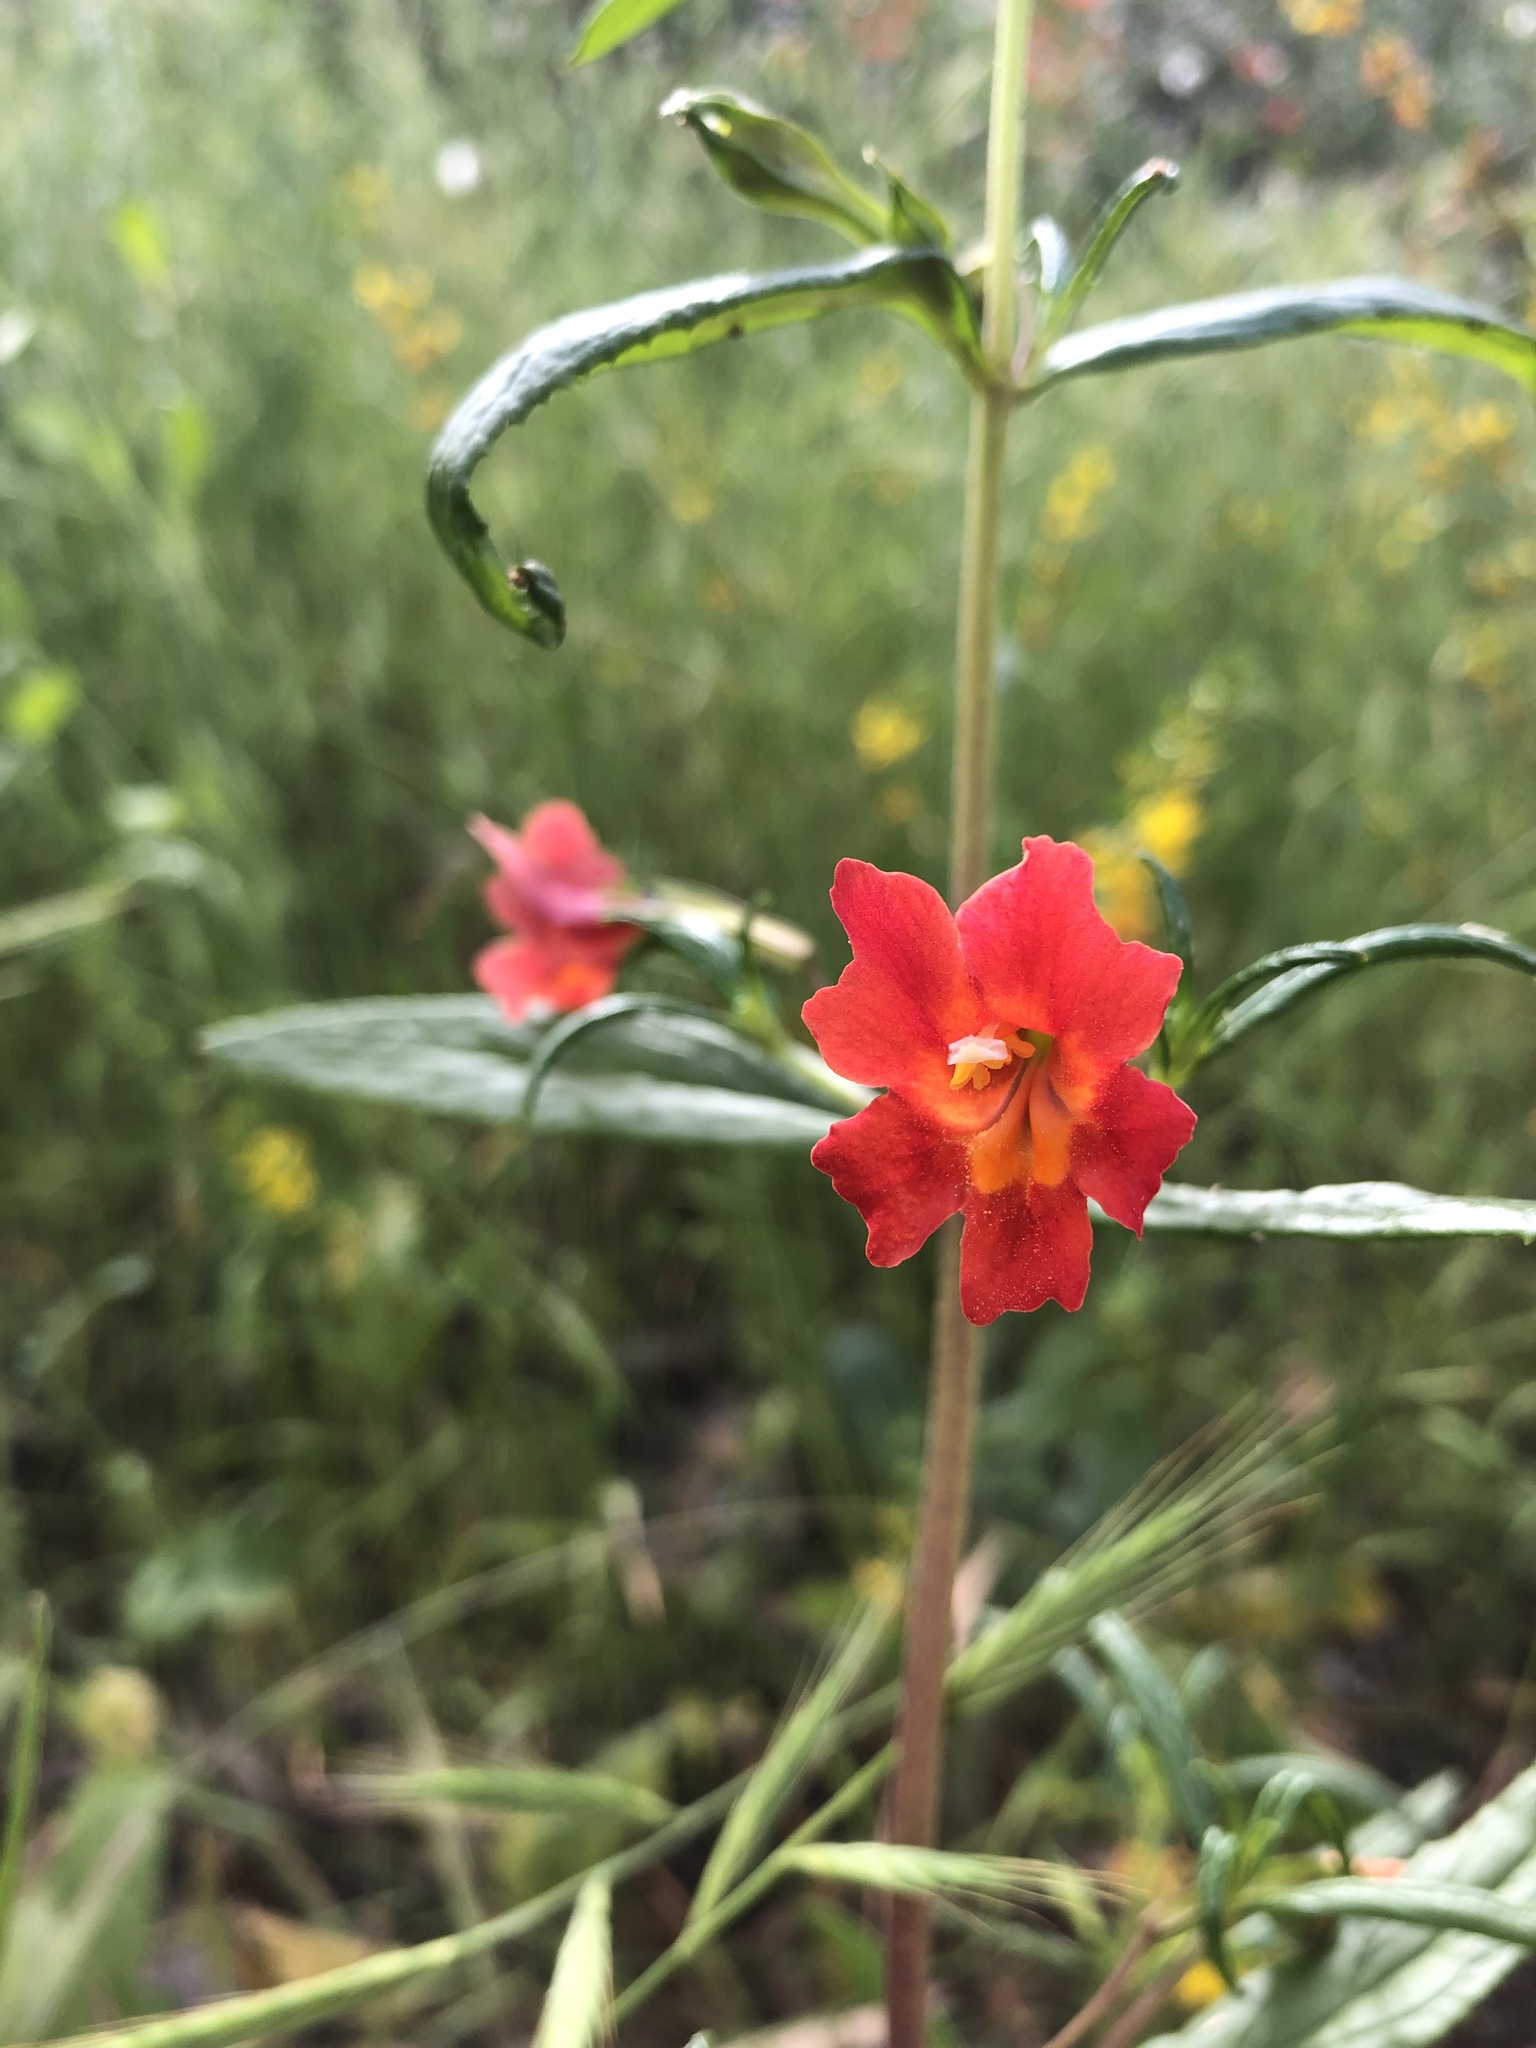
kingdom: Plantae
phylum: Tracheophyta
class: Magnoliopsida
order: Lamiales
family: Phrymaceae
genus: Diplacus
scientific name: Diplacus puniceus
